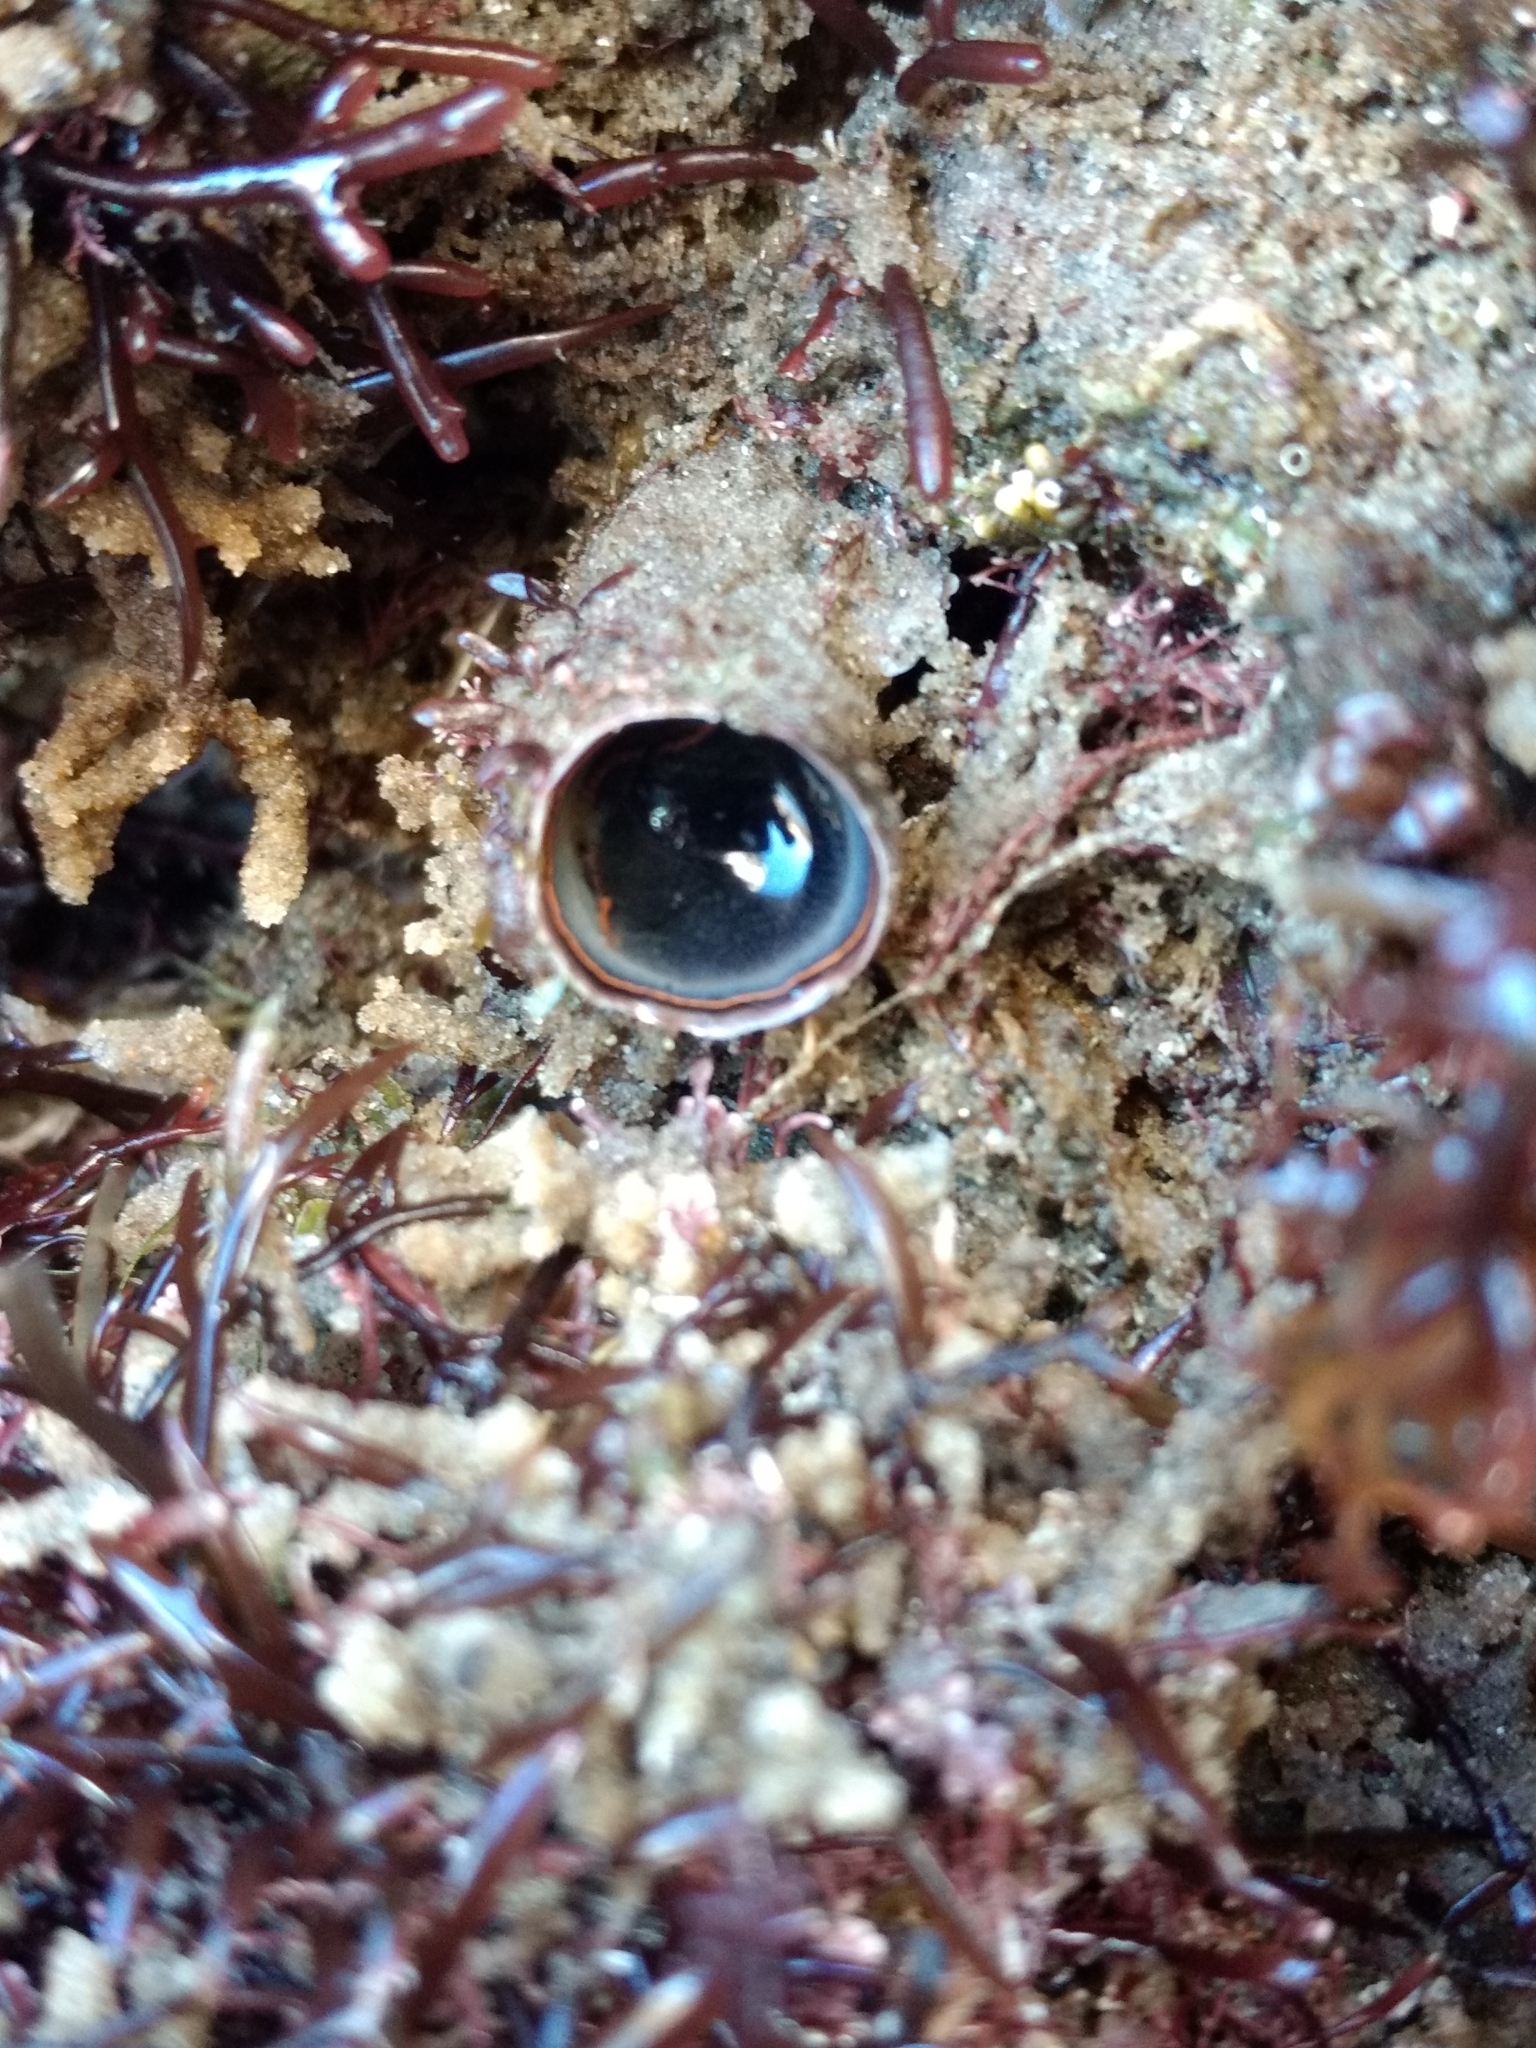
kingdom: Animalia
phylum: Mollusca
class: Gastropoda
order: Littorinimorpha
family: Vermetidae
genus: Thylacodes
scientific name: Thylacodes squamigerus
